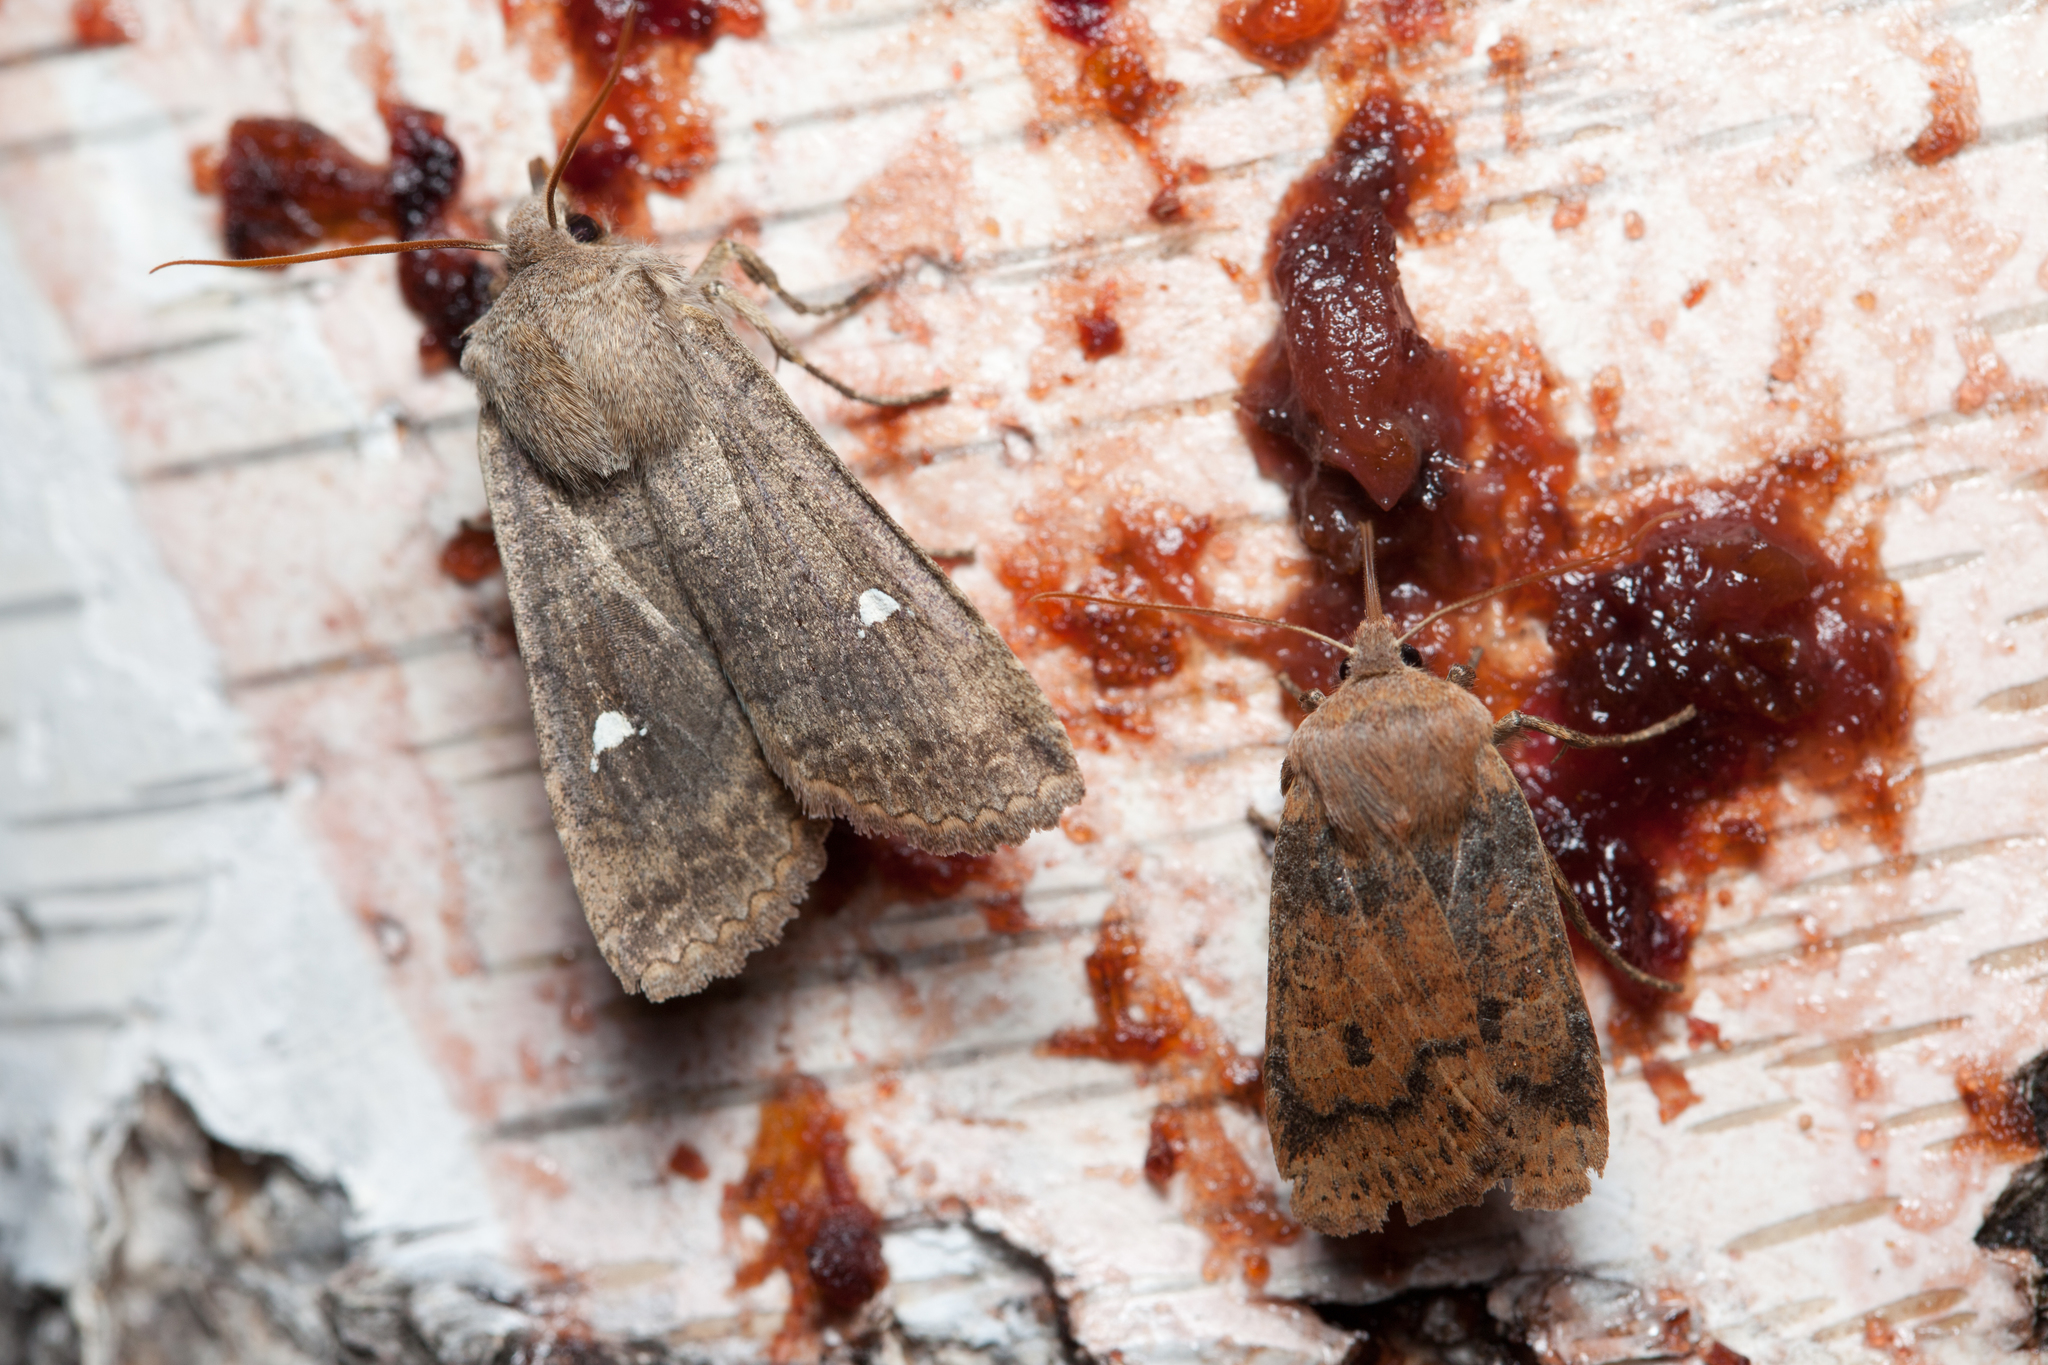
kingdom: Animalia
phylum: Arthropoda
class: Insecta
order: Lepidoptera
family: Noctuidae
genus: Eupsilia
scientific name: Eupsilia transversa
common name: Satellite
